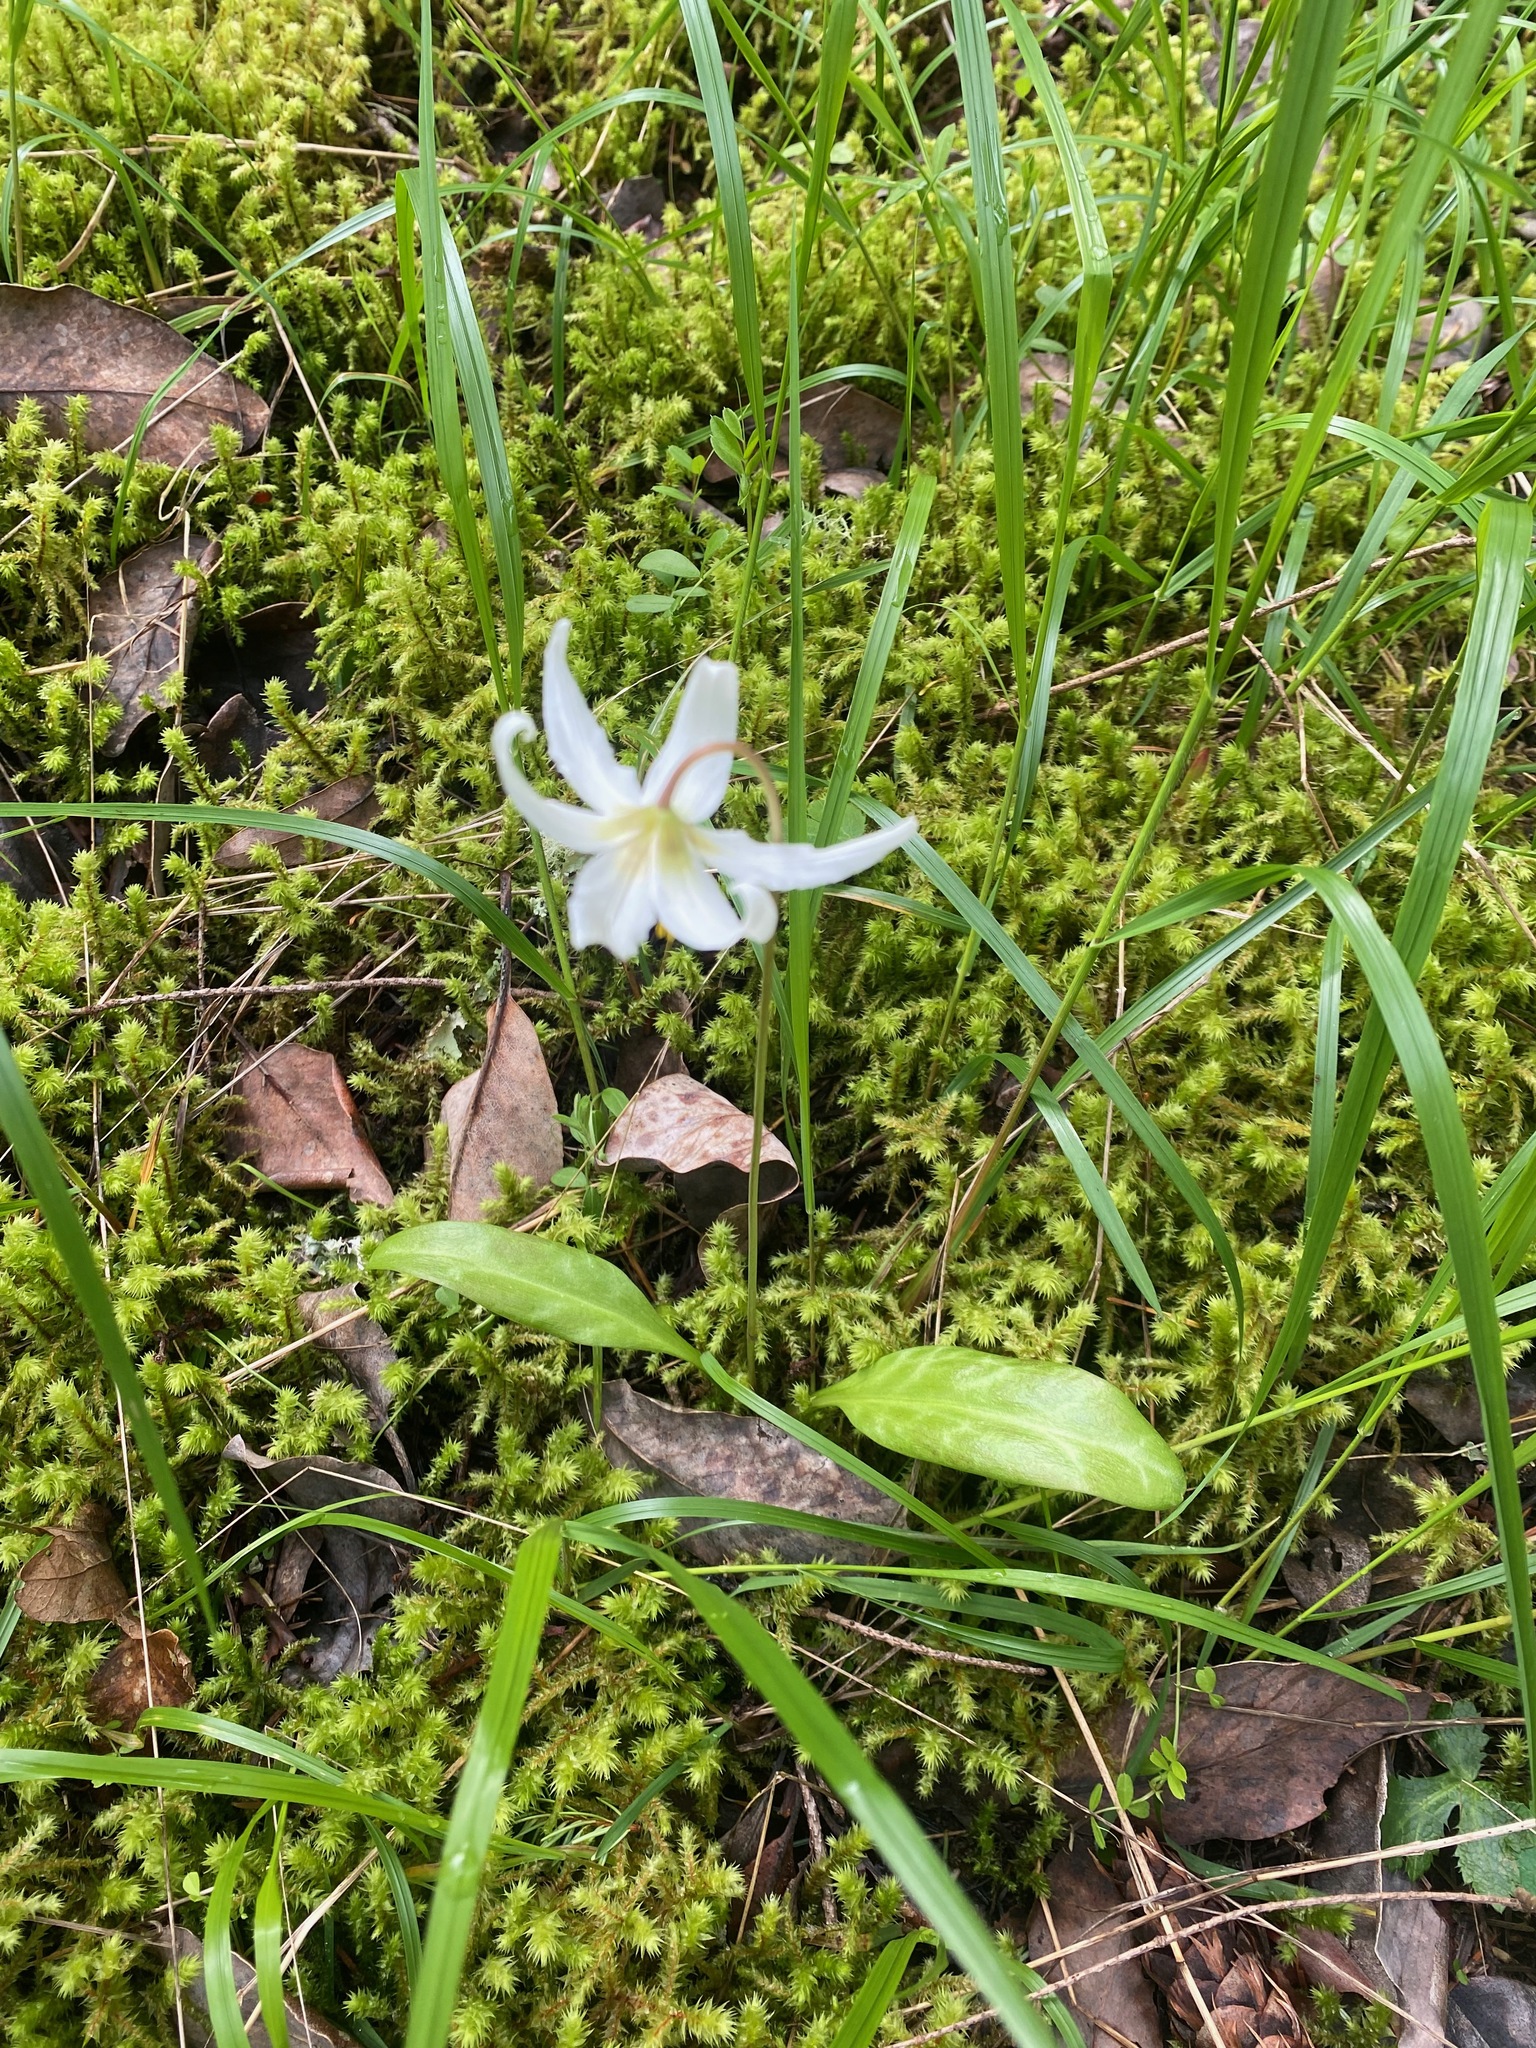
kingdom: Plantae
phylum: Tracheophyta
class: Liliopsida
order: Liliales
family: Liliaceae
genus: Erythronium
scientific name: Erythronium oregonum
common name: Giant adder's-tongue
